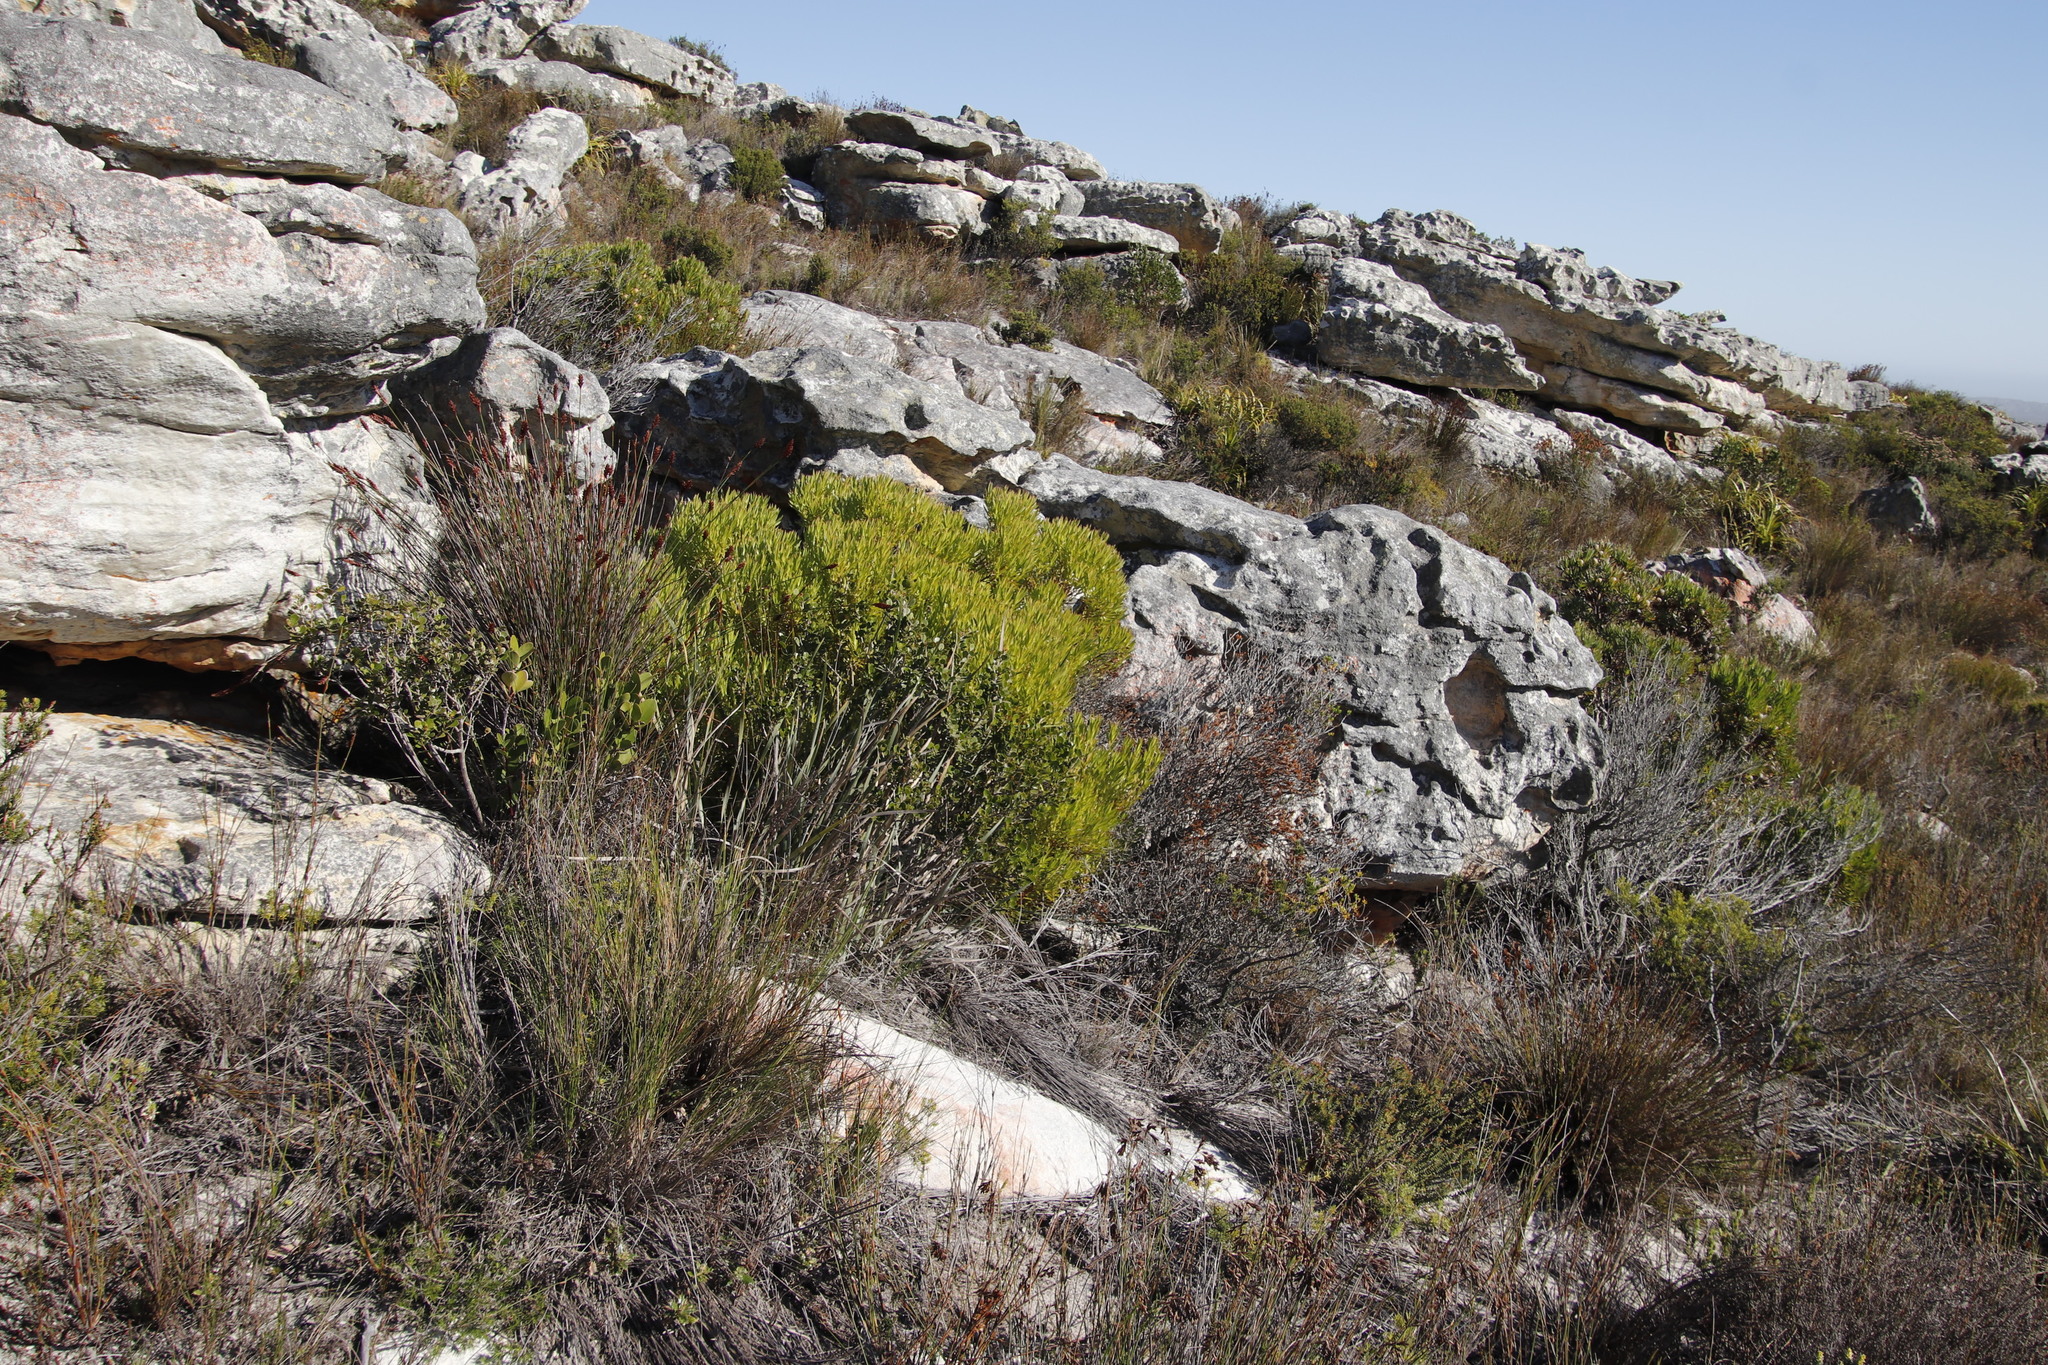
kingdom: Plantae
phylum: Tracheophyta
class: Magnoliopsida
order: Proteales
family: Proteaceae
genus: Leucadendron
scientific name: Leucadendron xanthoconus
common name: Sickle-leaf conebush
